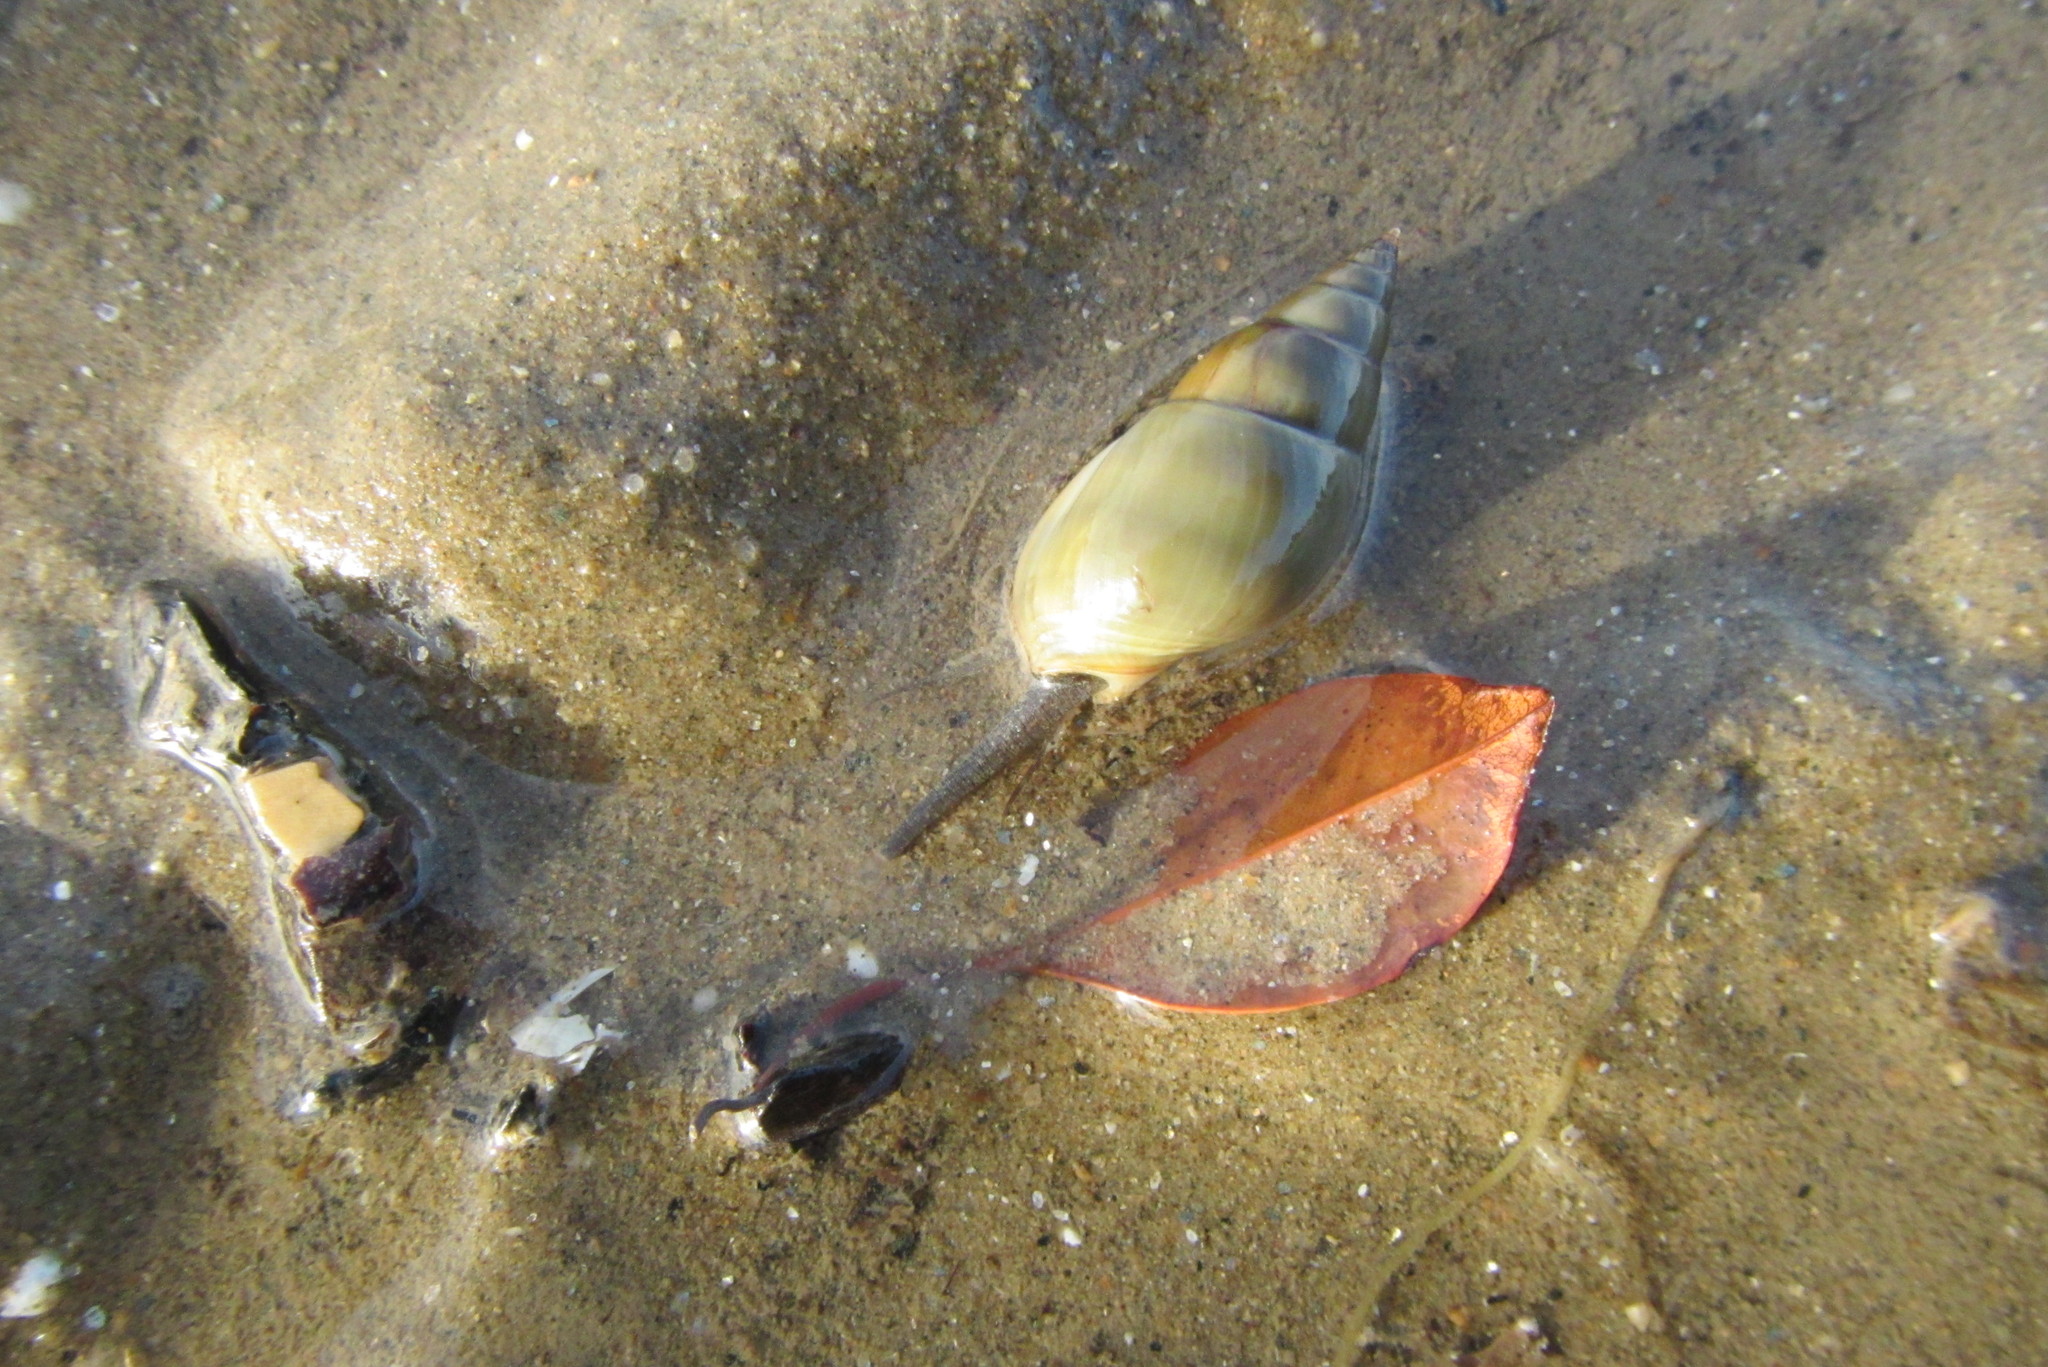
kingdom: Animalia
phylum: Mollusca
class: Gastropoda
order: Neogastropoda
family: Nassariidae
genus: Nassarius
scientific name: Nassarius dorsatus
